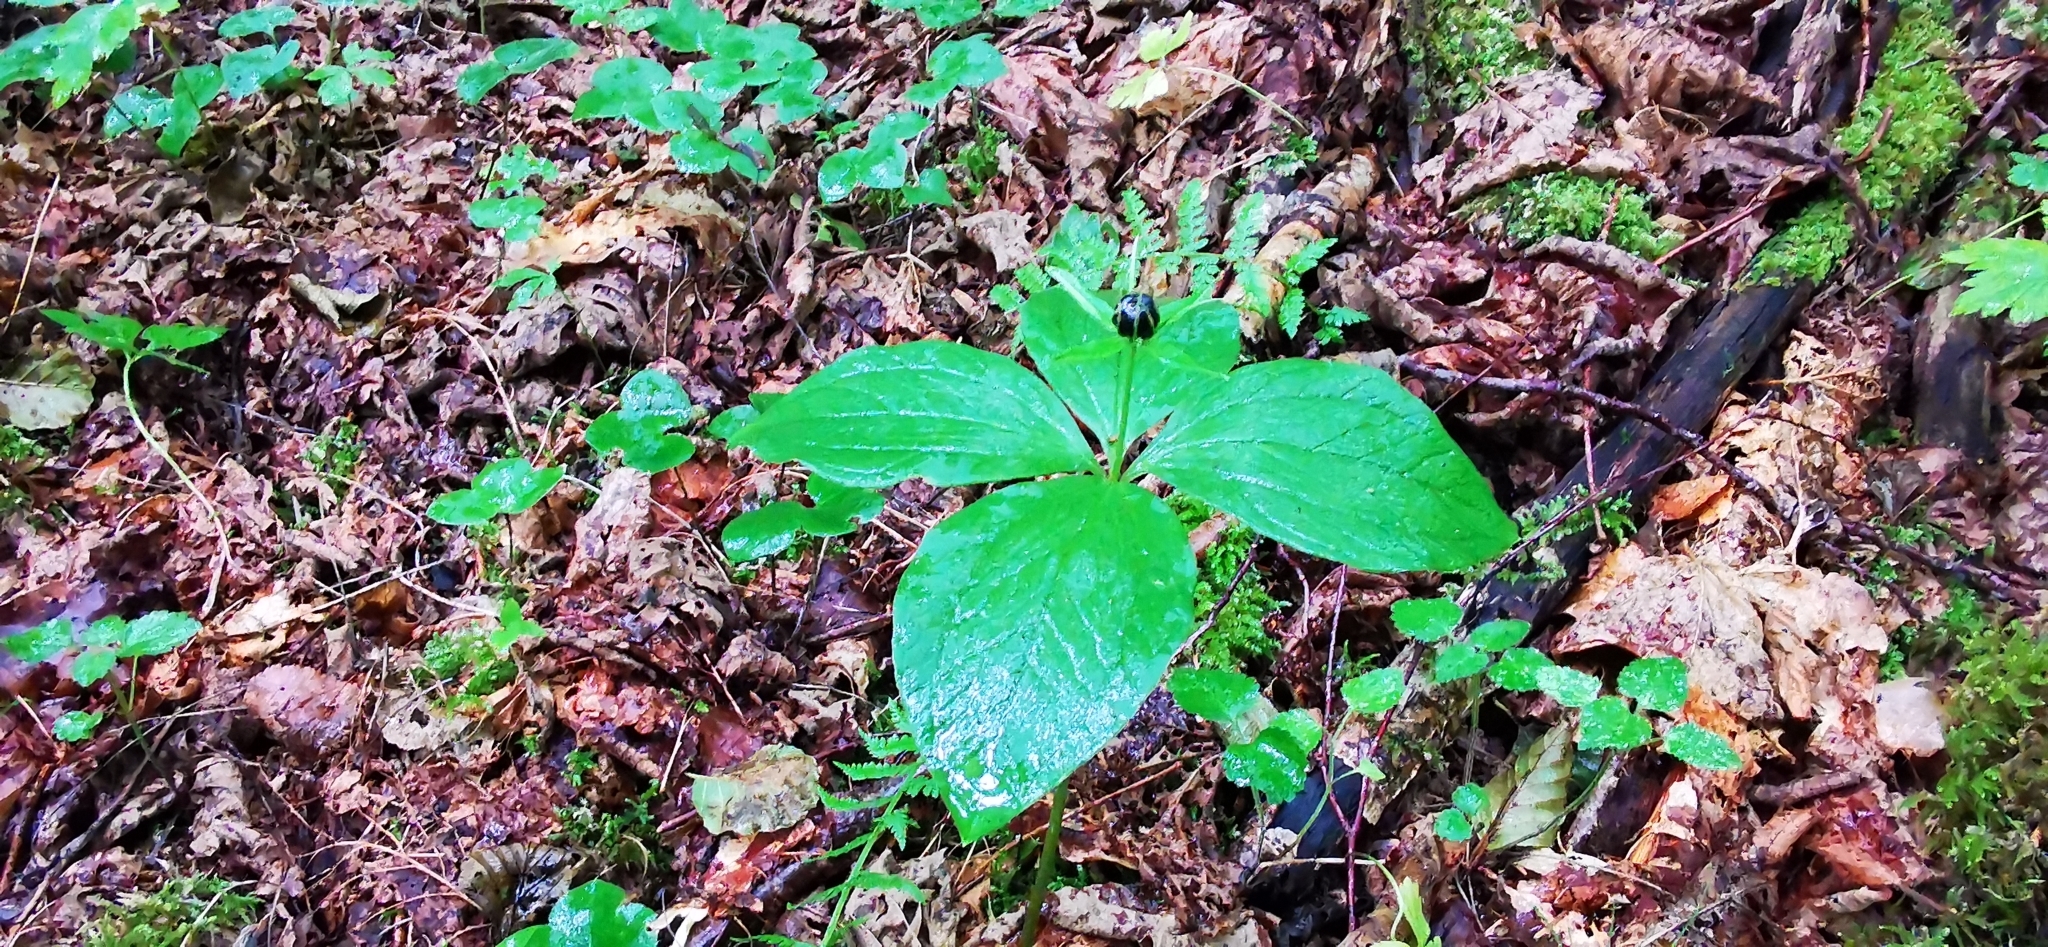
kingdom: Plantae
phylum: Tracheophyta
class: Liliopsida
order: Liliales
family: Melanthiaceae
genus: Paris
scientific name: Paris quadrifolia
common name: Herb-paris
